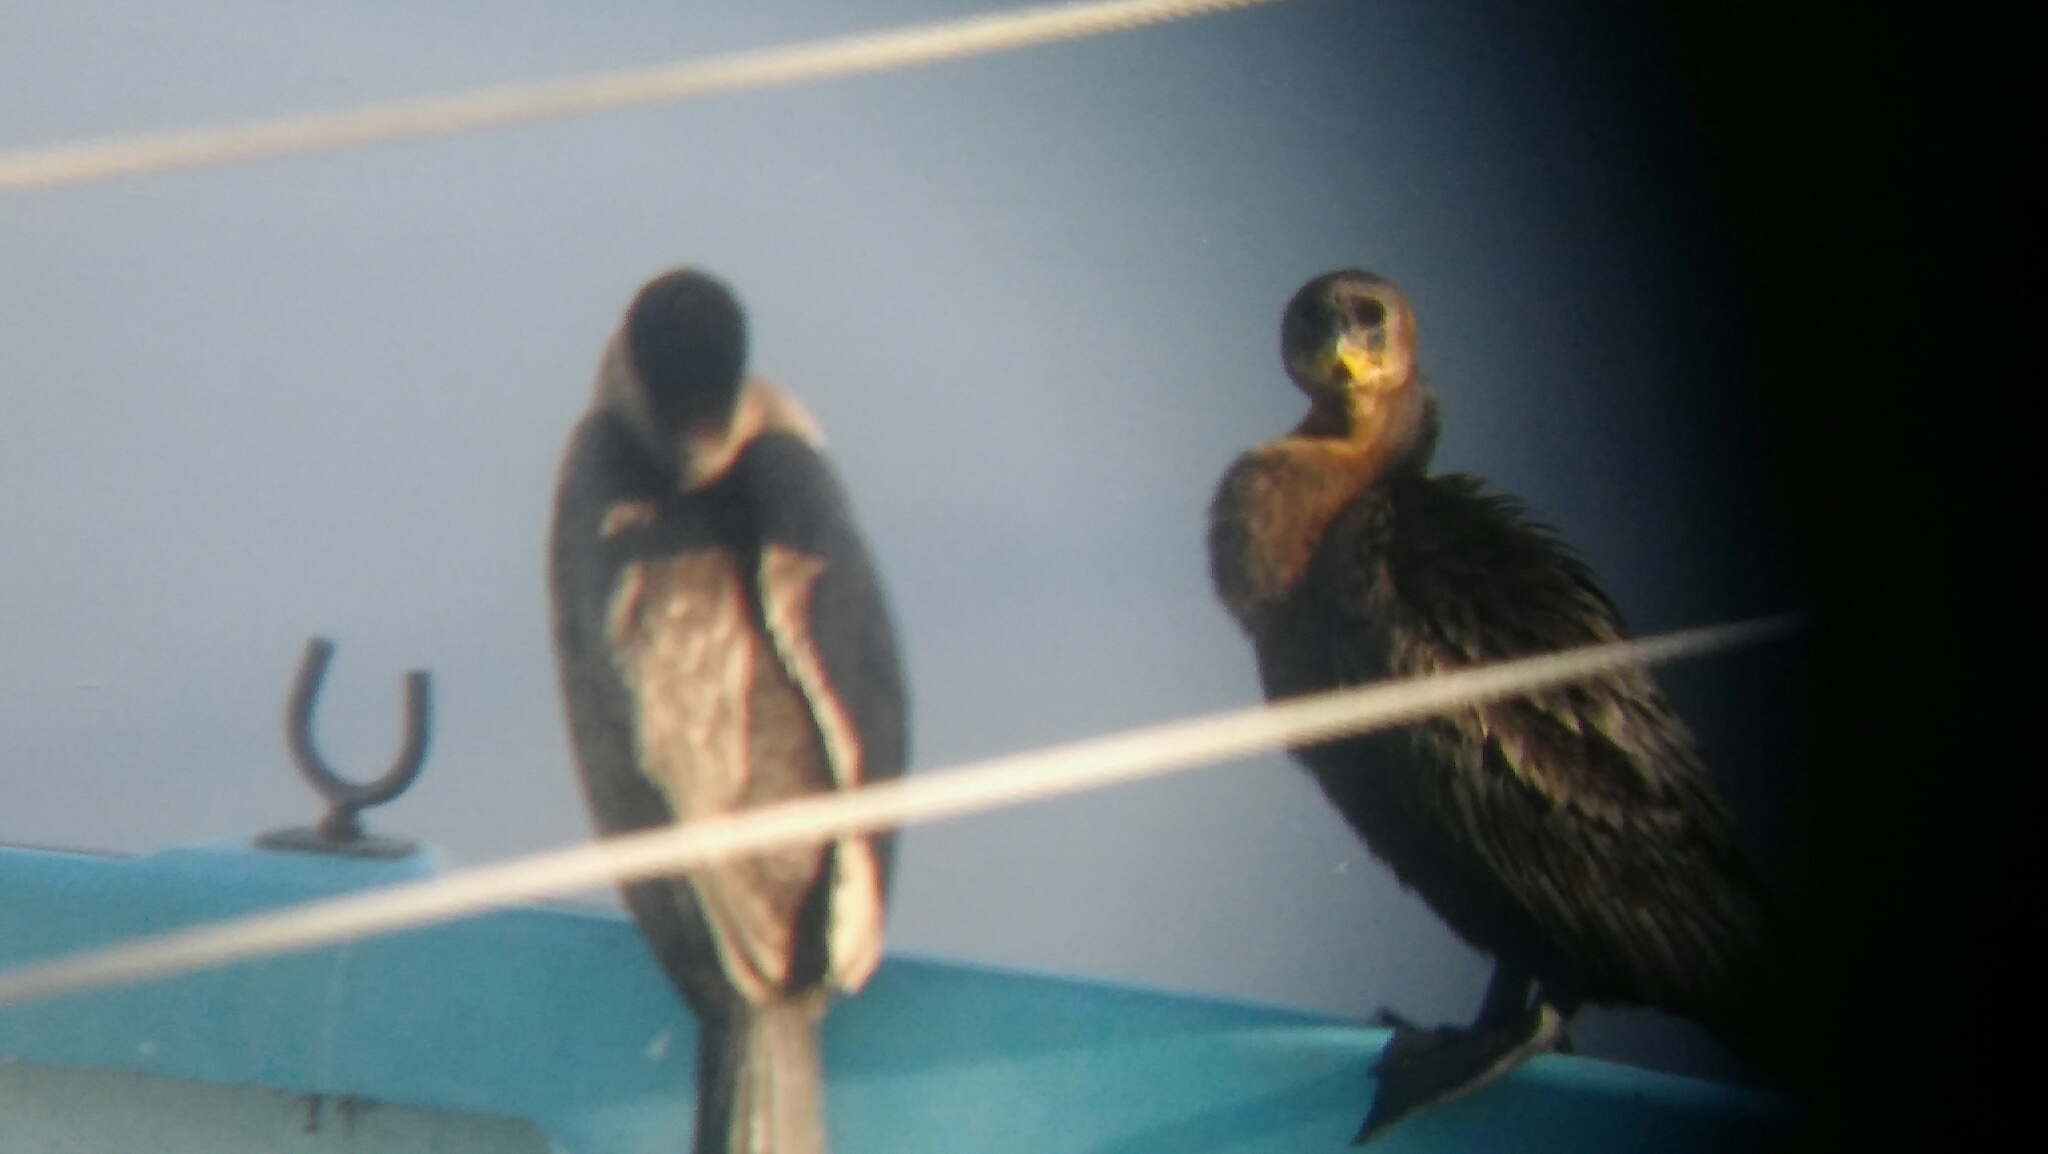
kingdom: Animalia
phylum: Chordata
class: Aves
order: Suliformes
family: Phalacrocoracidae
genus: Phalacrocorax
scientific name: Phalacrocorax brasilianus
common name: Neotropic cormorant
